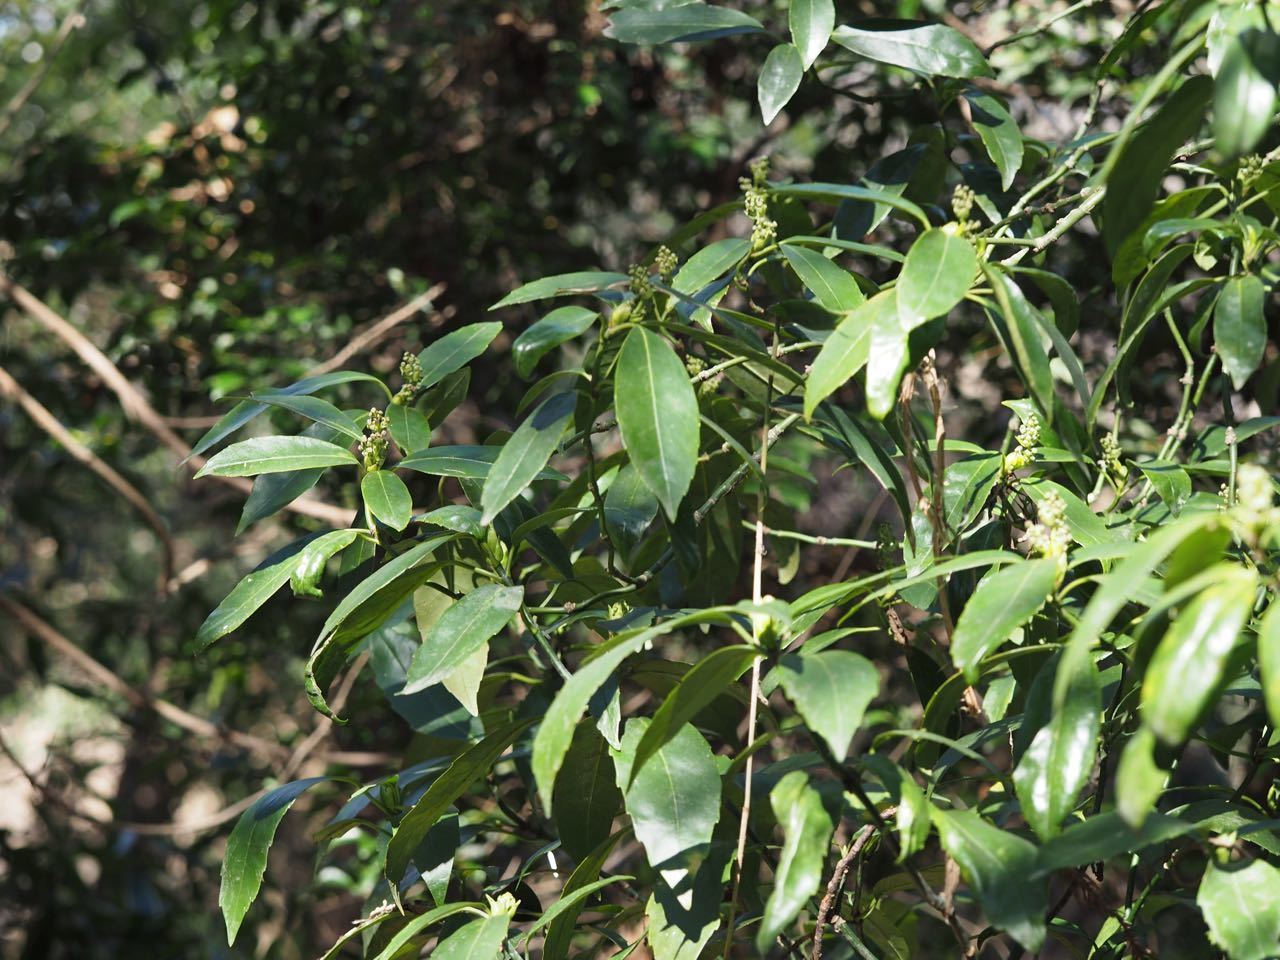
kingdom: Plantae
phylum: Tracheophyta
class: Magnoliopsida
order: Garryales
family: Garryaceae
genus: Aucuba
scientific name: Aucuba japonica
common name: Spotted-laurel
